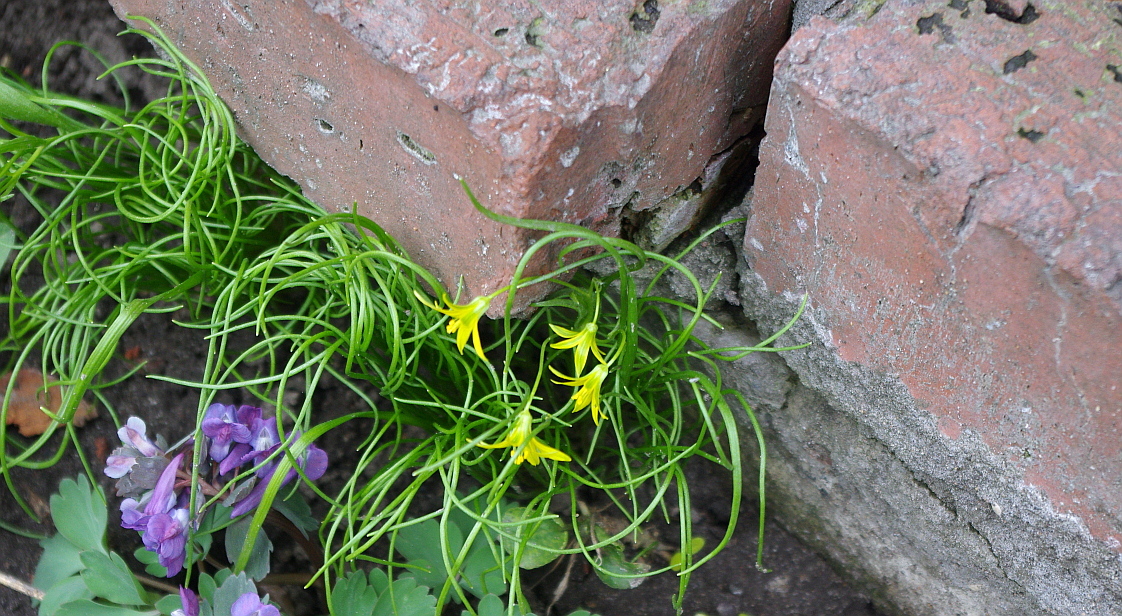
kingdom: Plantae
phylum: Tracheophyta
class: Liliopsida
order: Liliales
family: Liliaceae
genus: Gagea
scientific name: Gagea minima
